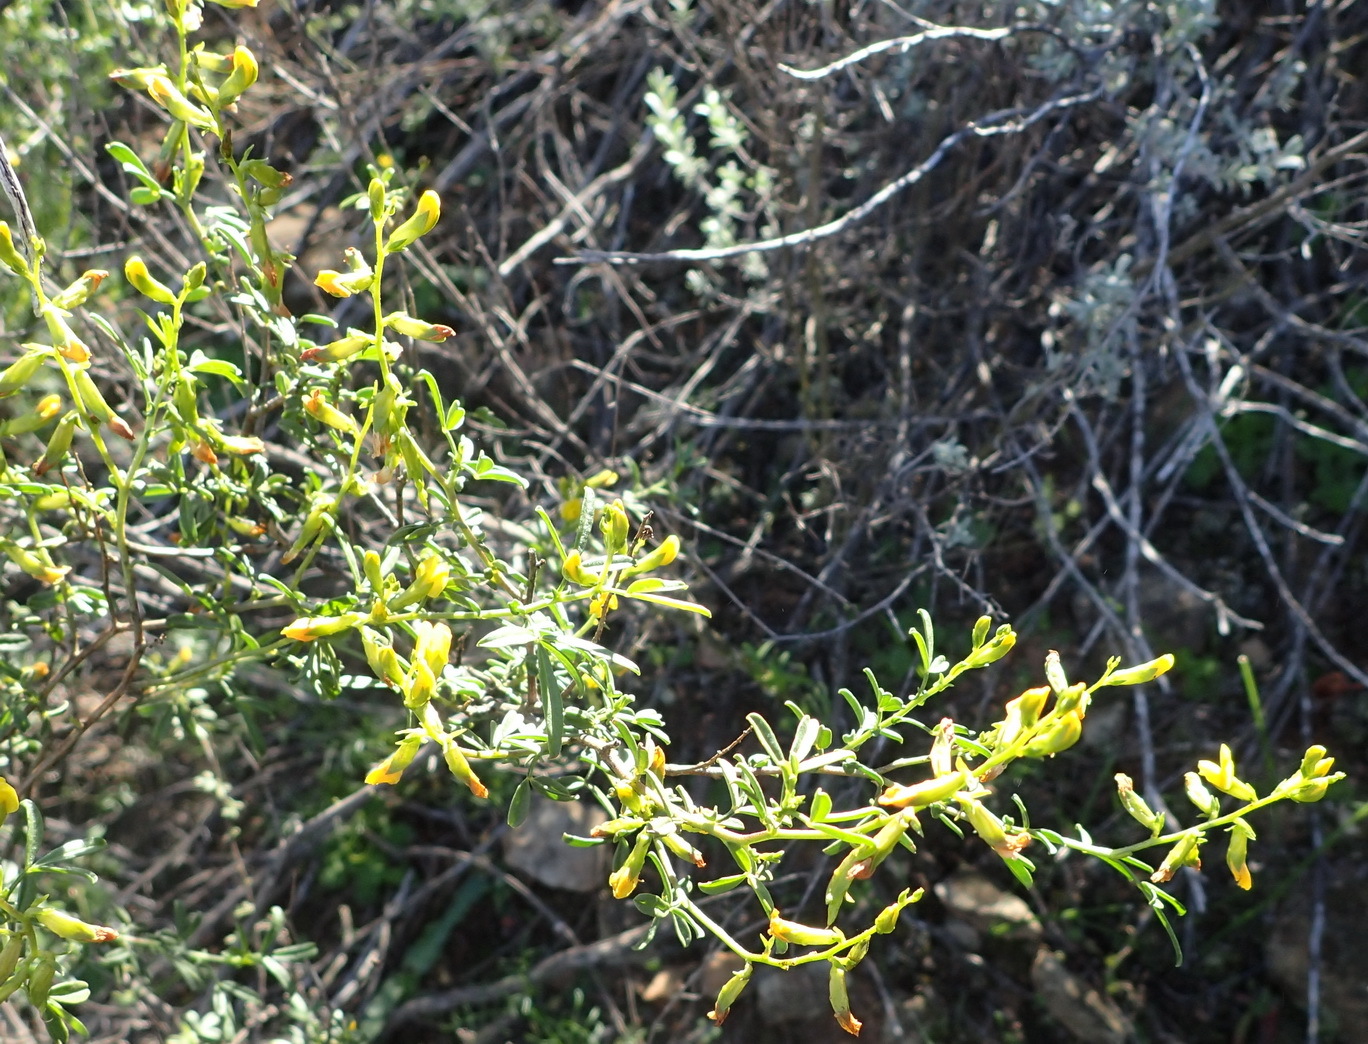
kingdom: Plantae
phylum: Tracheophyta
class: Magnoliopsida
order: Fabales
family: Fabaceae
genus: Melolobium
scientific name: Melolobium exudans
